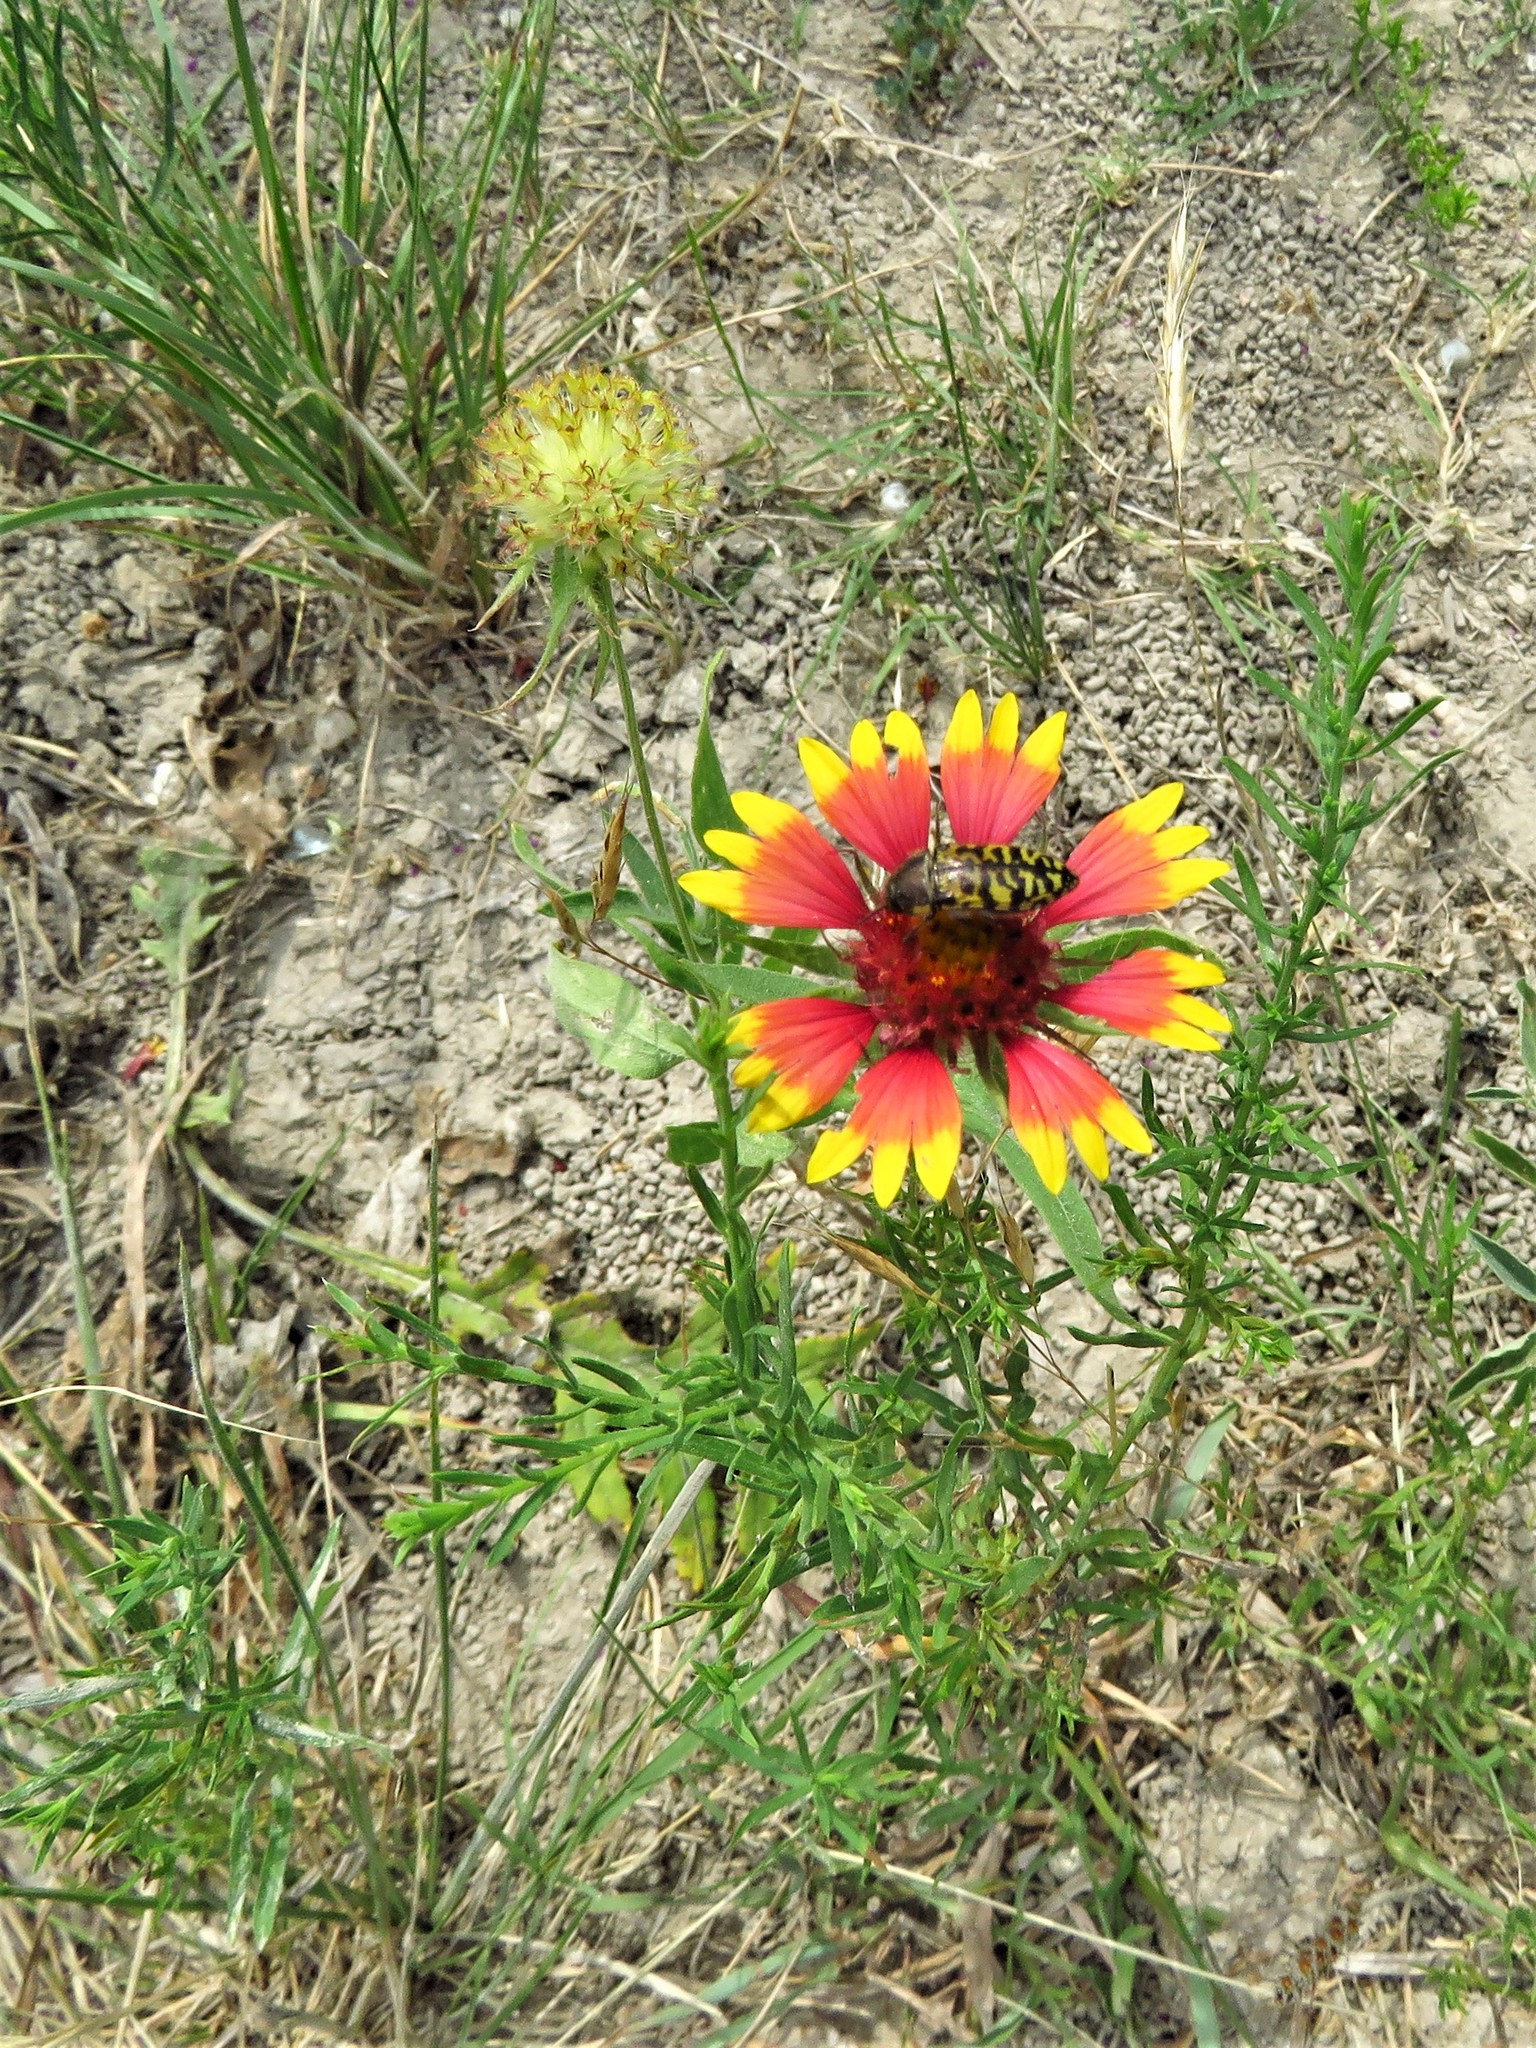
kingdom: Plantae
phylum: Tracheophyta
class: Magnoliopsida
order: Asterales
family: Asteraceae
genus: Gaillardia
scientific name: Gaillardia pulchella
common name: Firewheel
